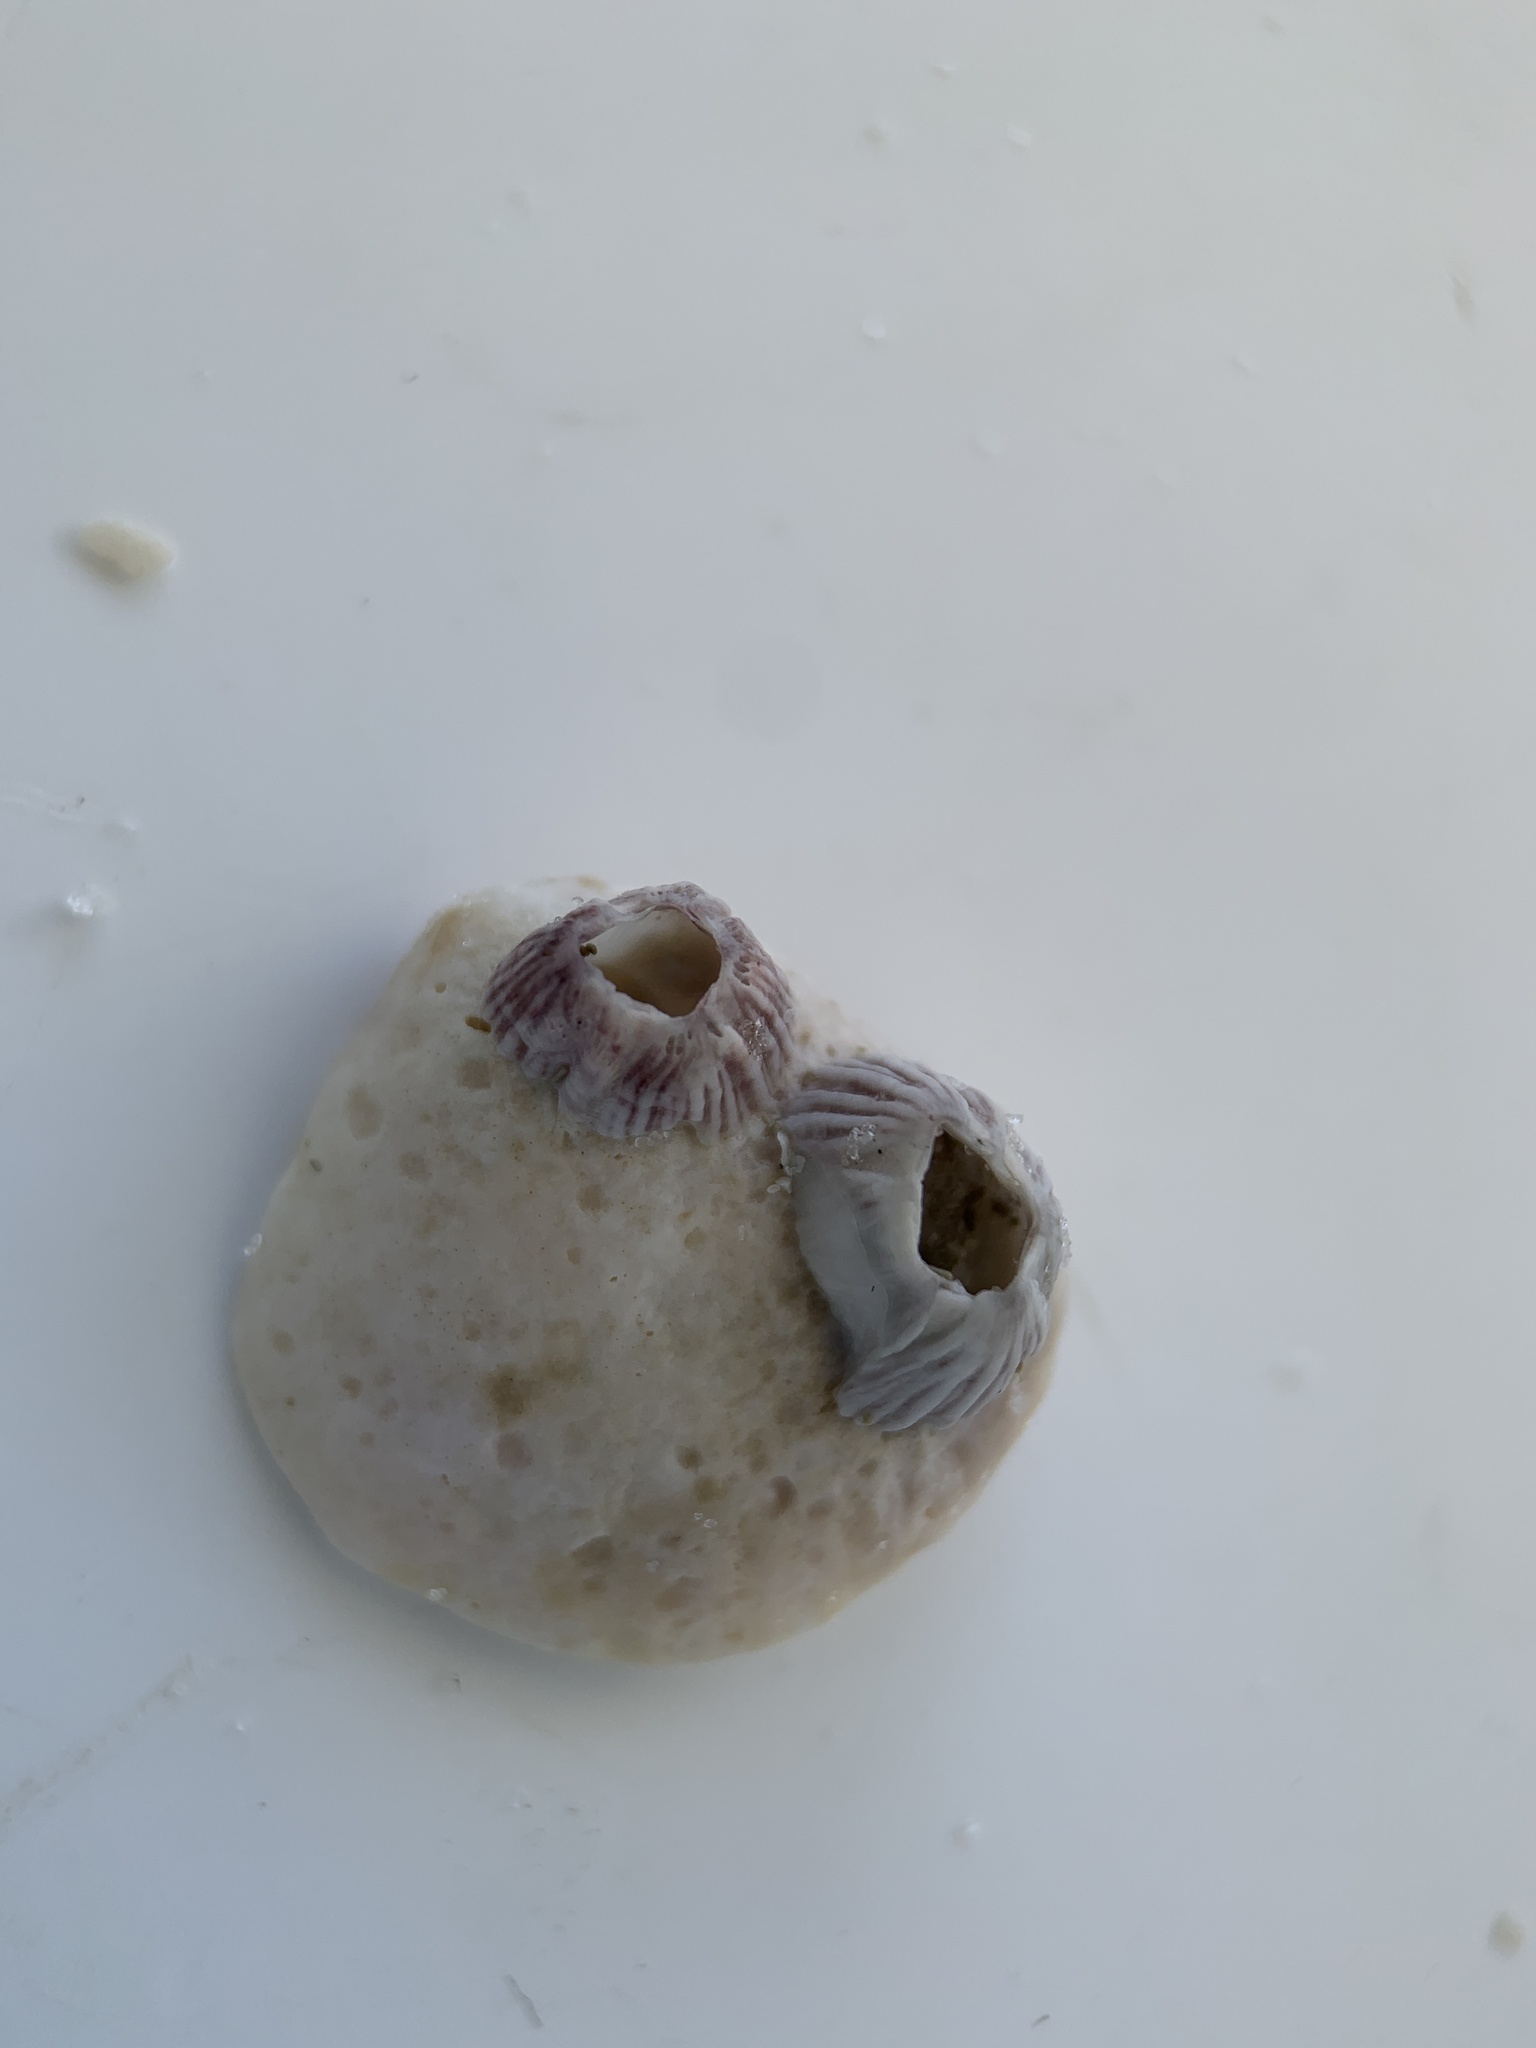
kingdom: Animalia
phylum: Arthropoda
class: Maxillopoda
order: Sessilia
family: Balanidae
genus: Balanus
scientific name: Balanus trigonus
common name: Triangle barnacle
